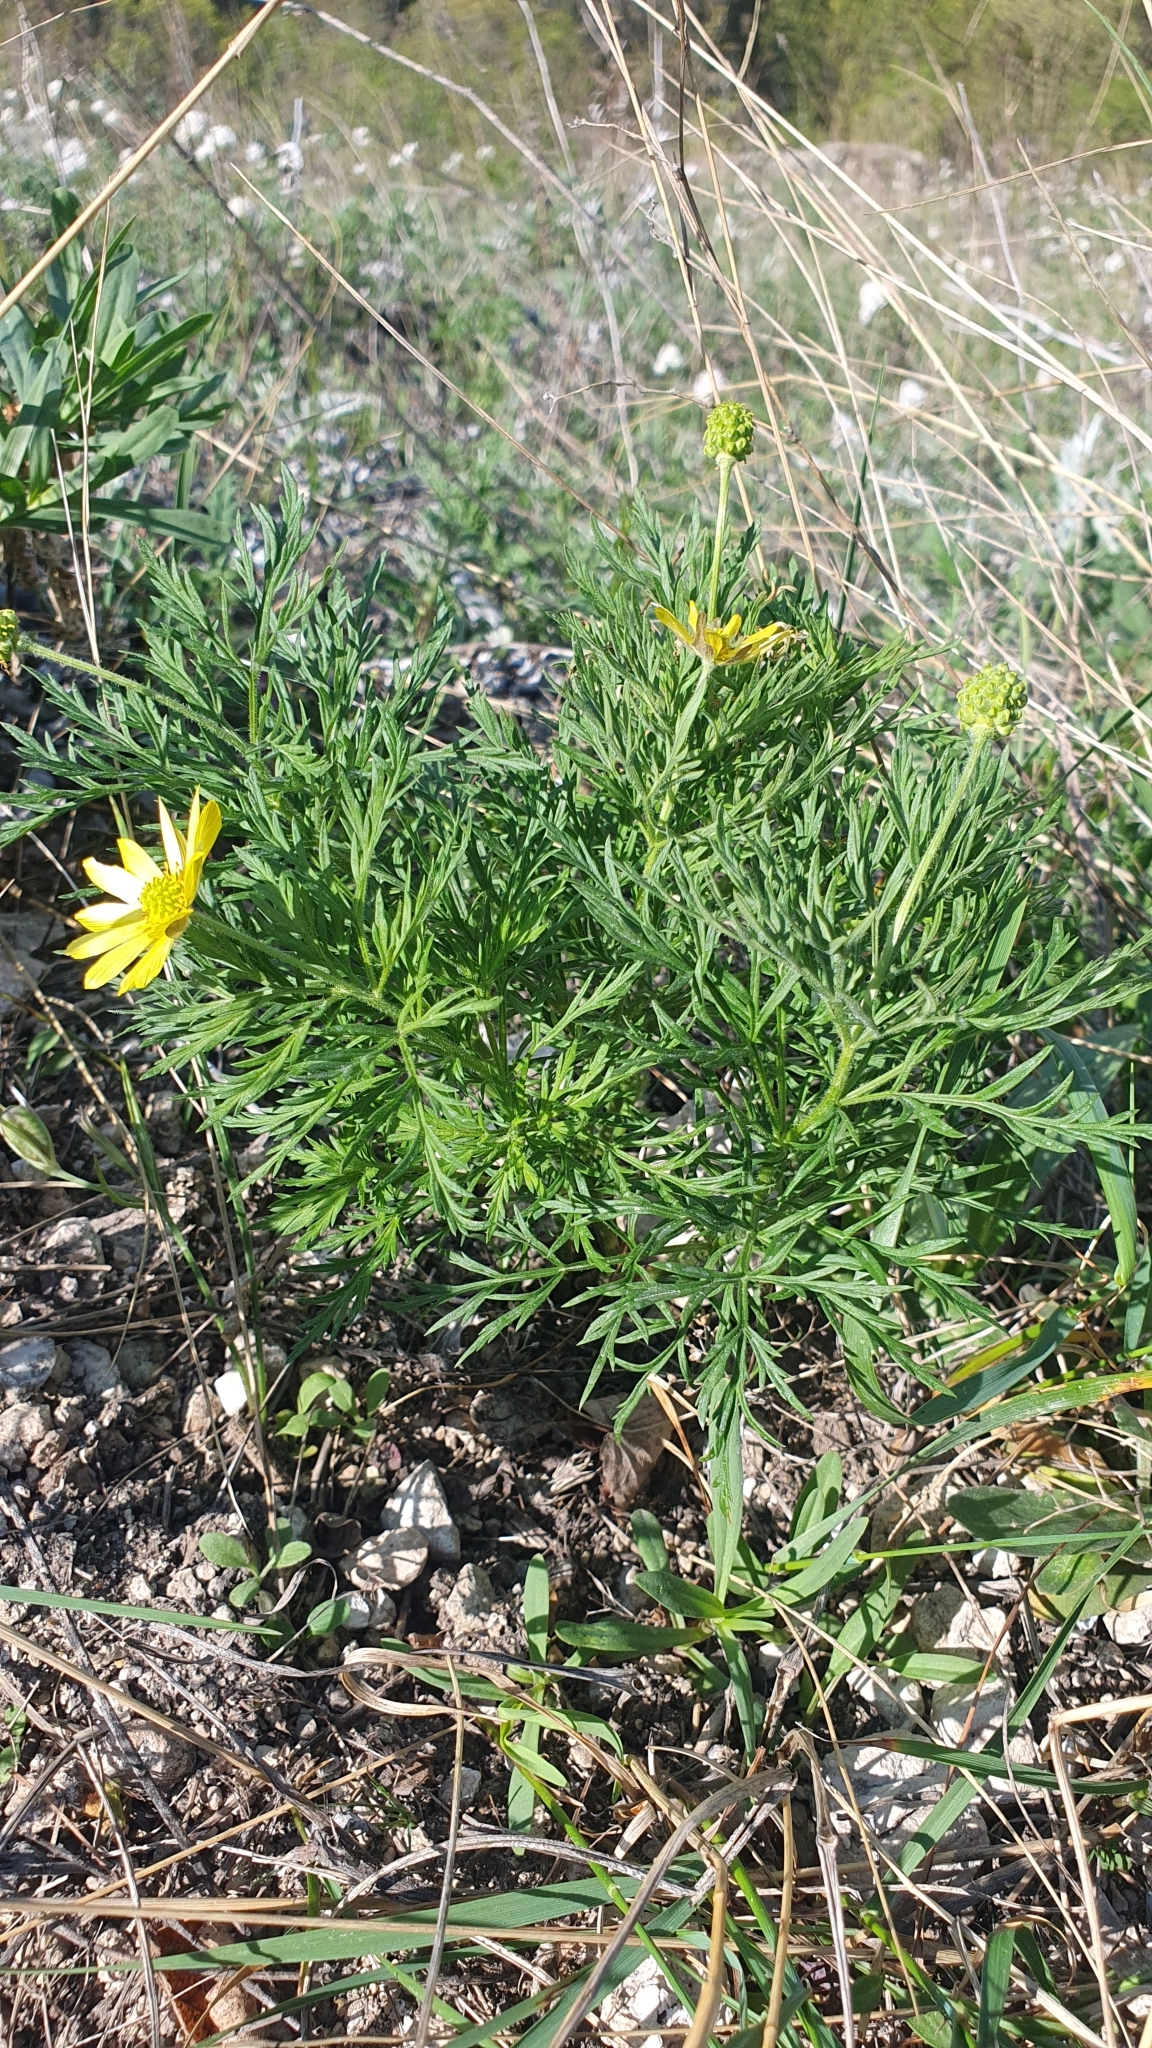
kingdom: Plantae
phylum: Tracheophyta
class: Magnoliopsida
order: Ranunculales
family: Ranunculaceae
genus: Adonis
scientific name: Adonis volgensis
